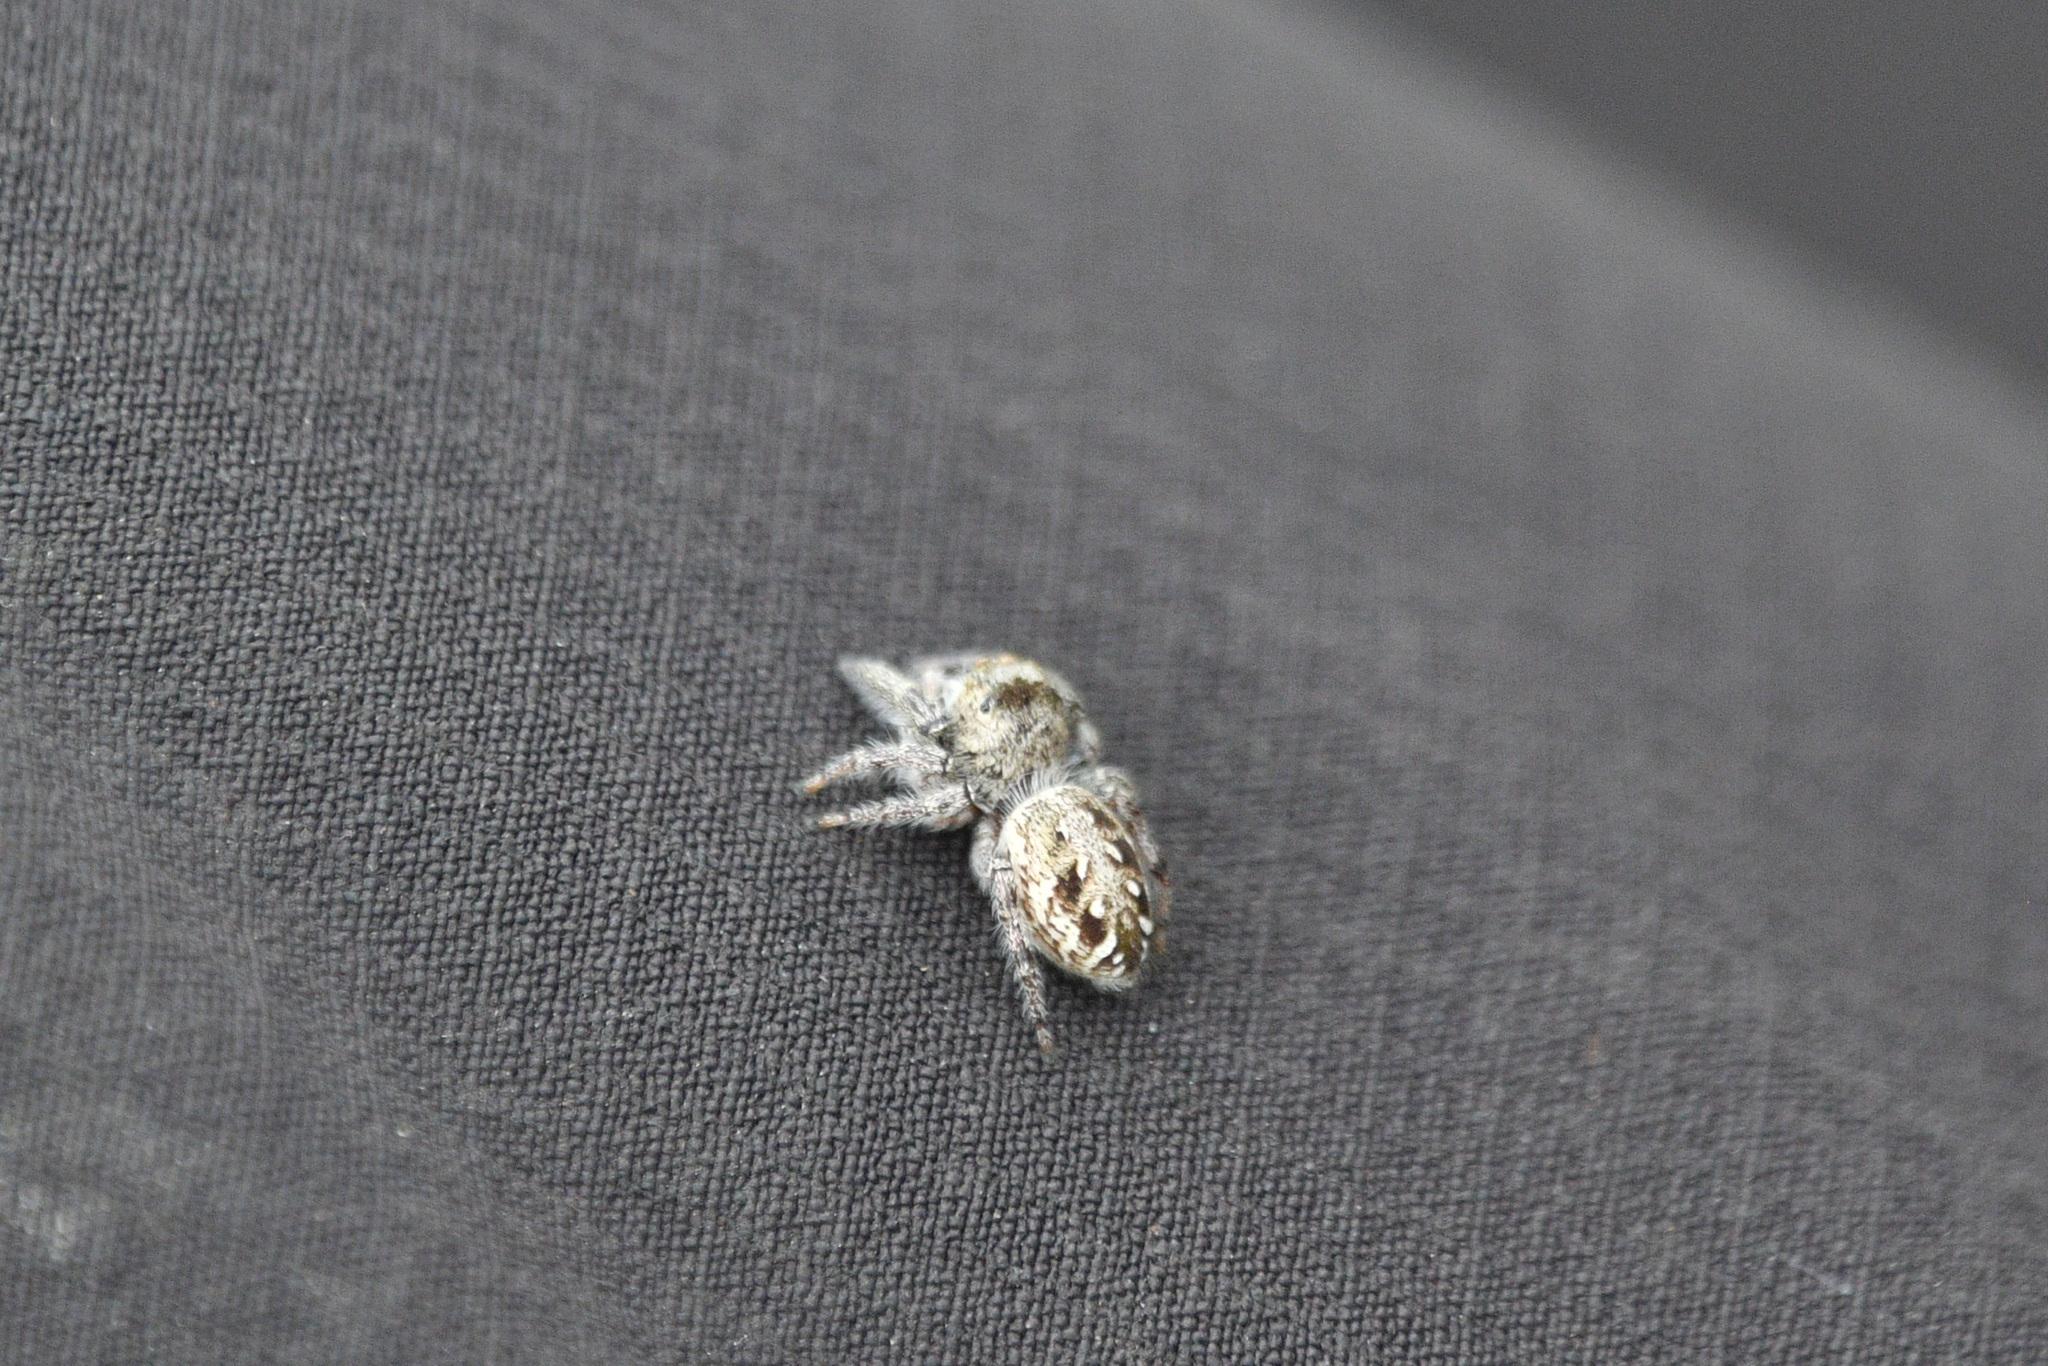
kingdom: Animalia
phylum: Arthropoda
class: Arachnida
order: Araneae
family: Salticidae
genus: Eris
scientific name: Eris militaris
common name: Bronze jumper
